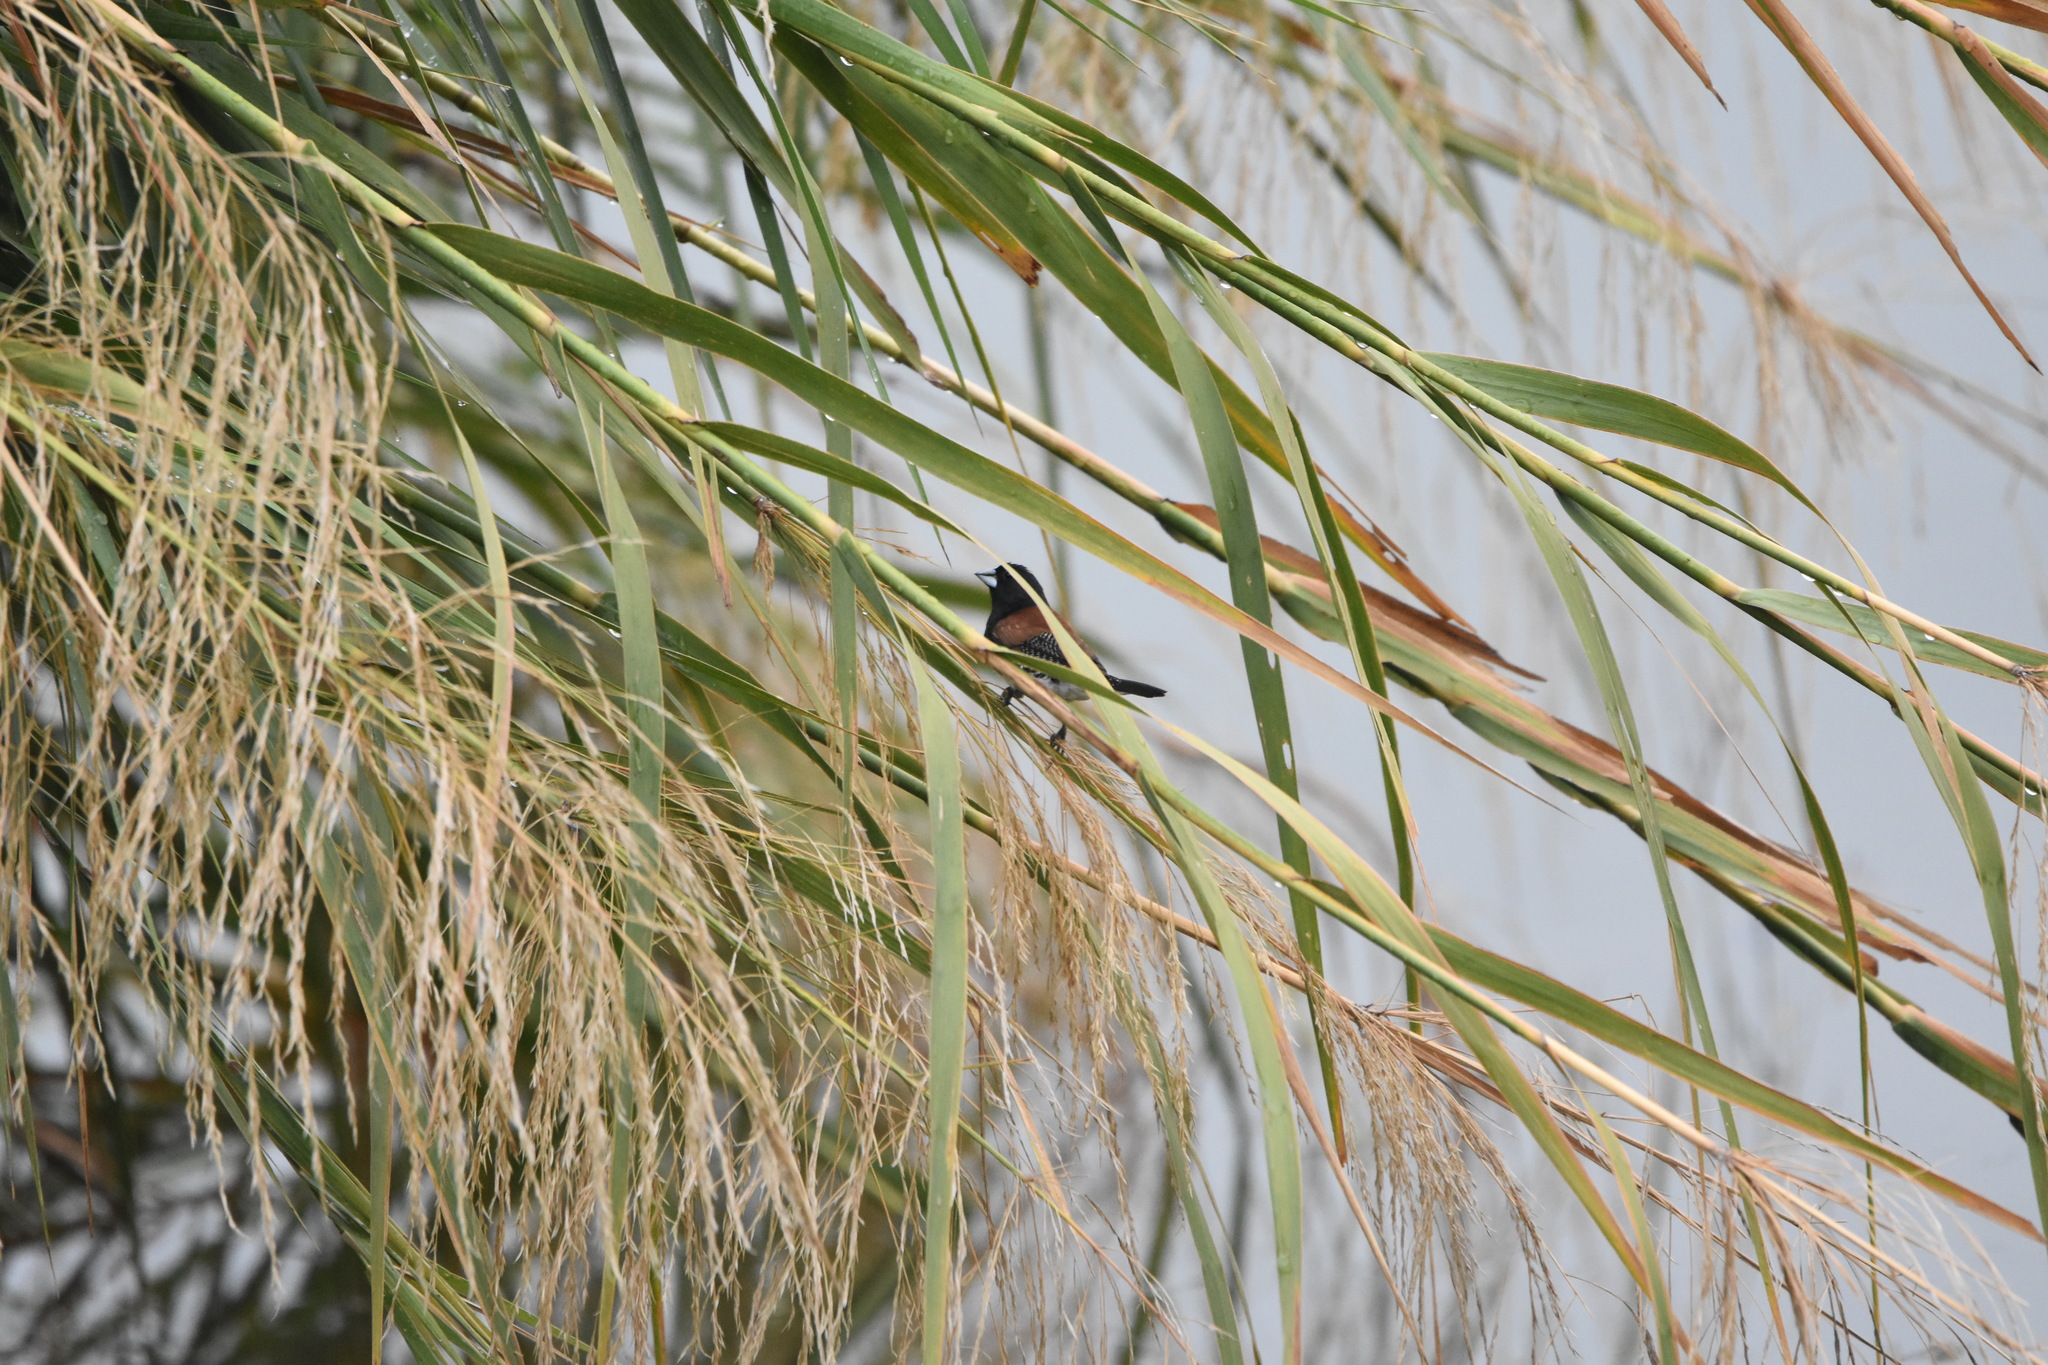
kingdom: Animalia
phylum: Chordata
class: Aves
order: Passeriformes
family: Estrildidae
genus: Lonchura
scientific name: Lonchura nigriceps
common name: Red-backed mannikin
